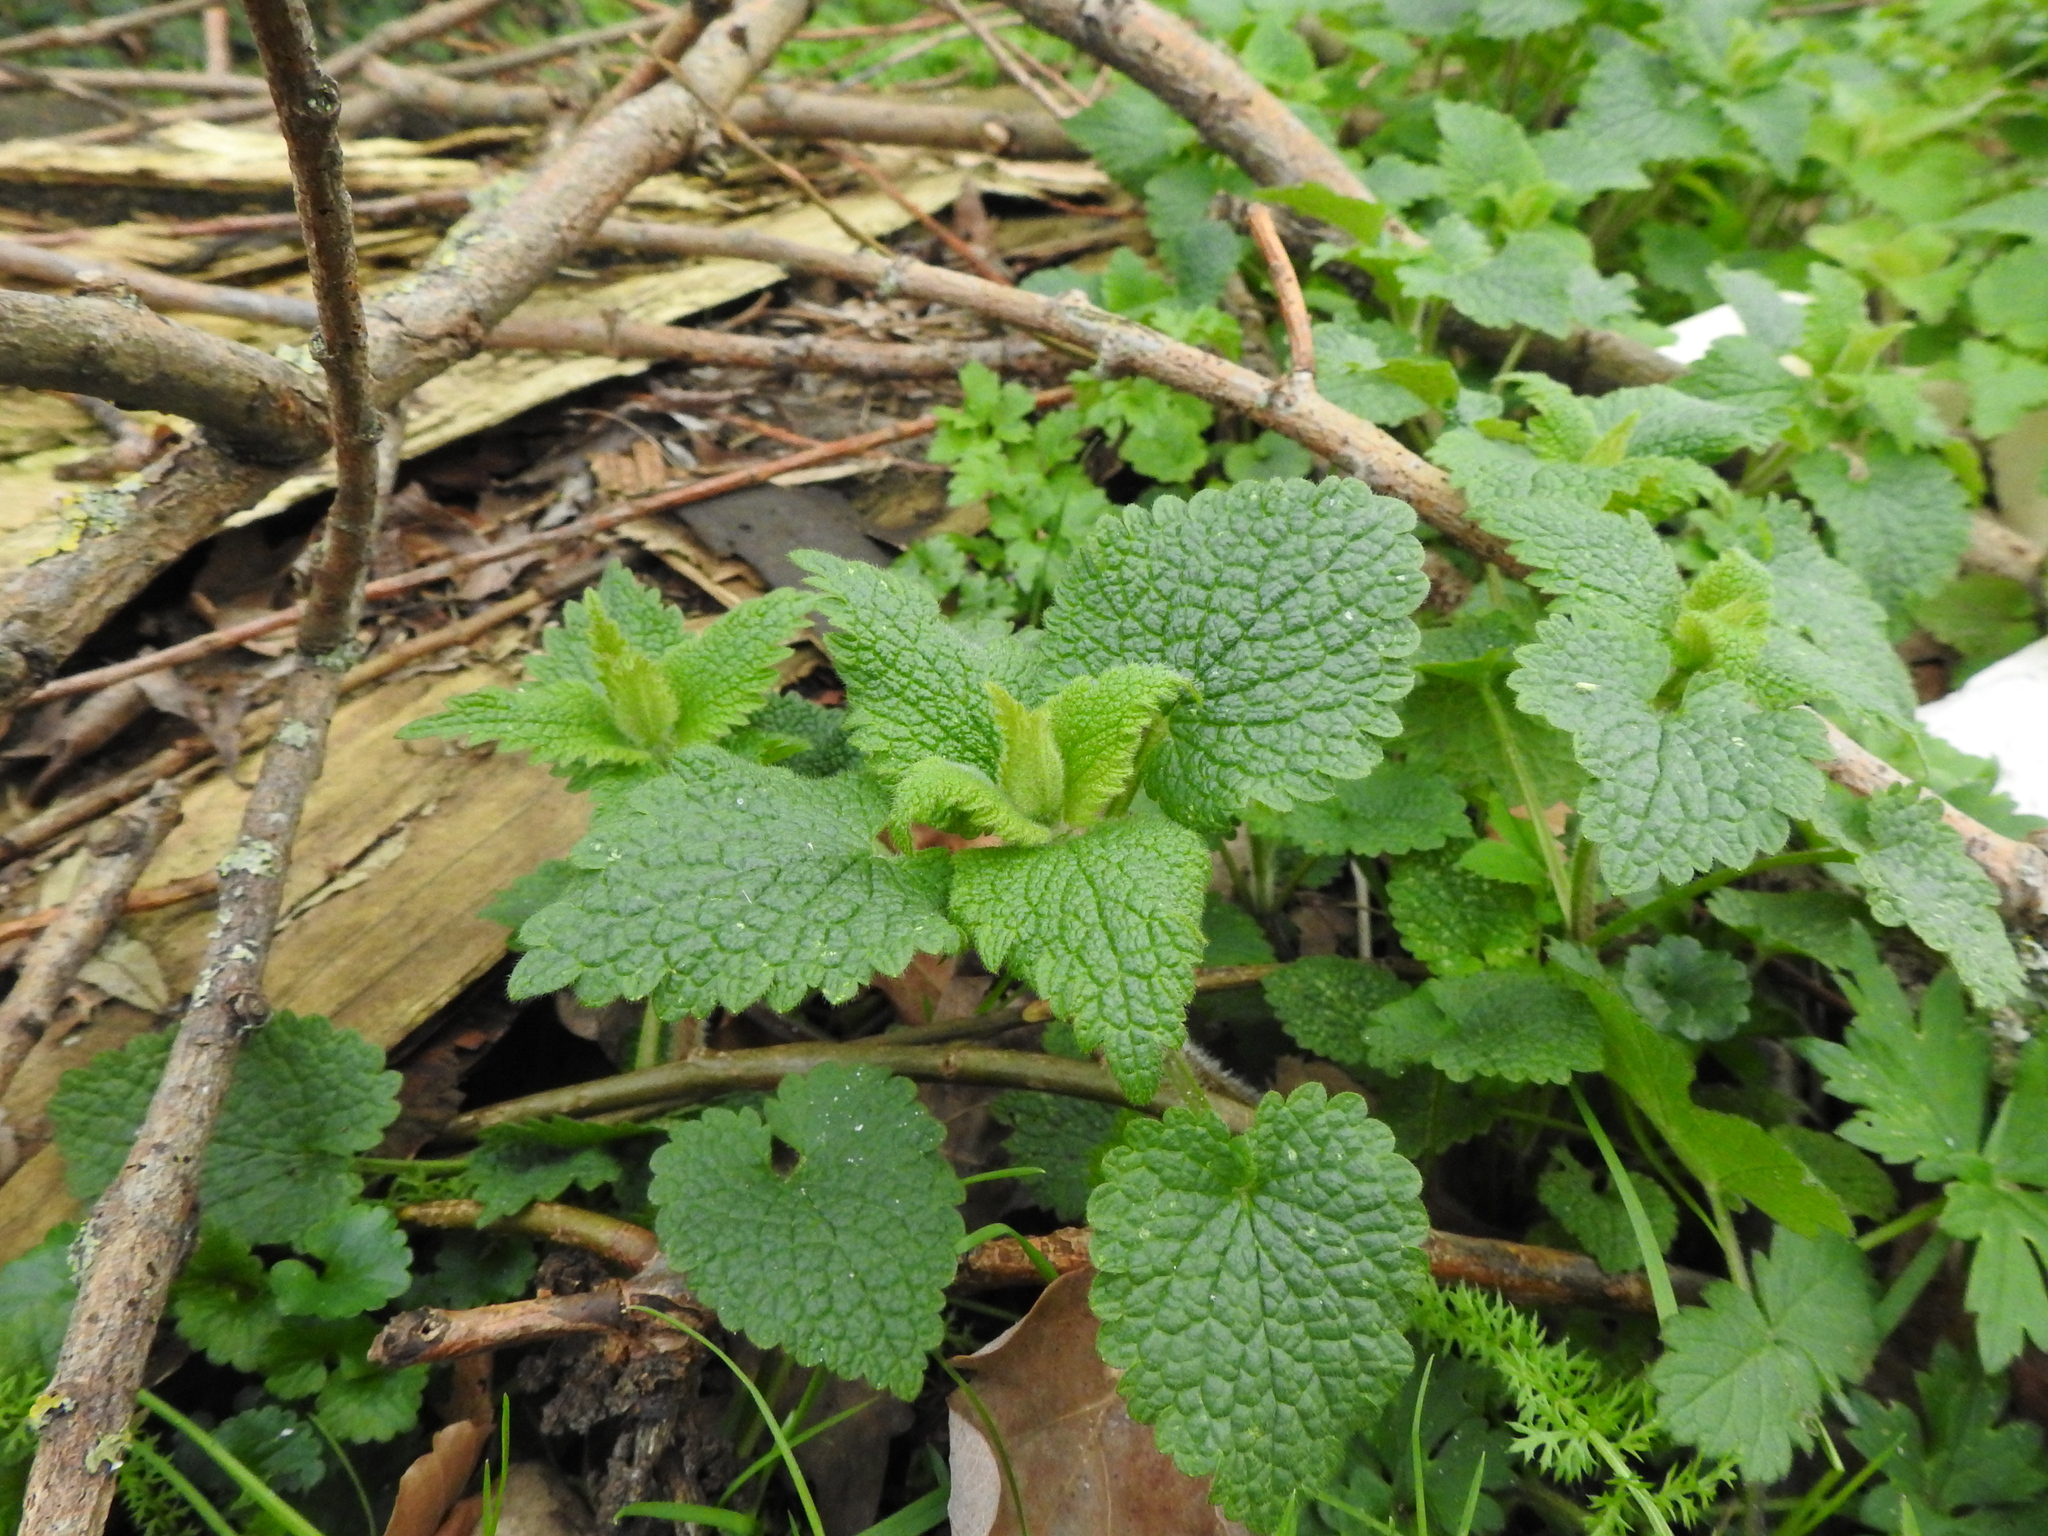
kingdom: Plantae
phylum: Tracheophyta
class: Magnoliopsida
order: Lamiales
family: Lamiaceae
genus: Lamium
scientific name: Lamium album
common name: White dead-nettle
